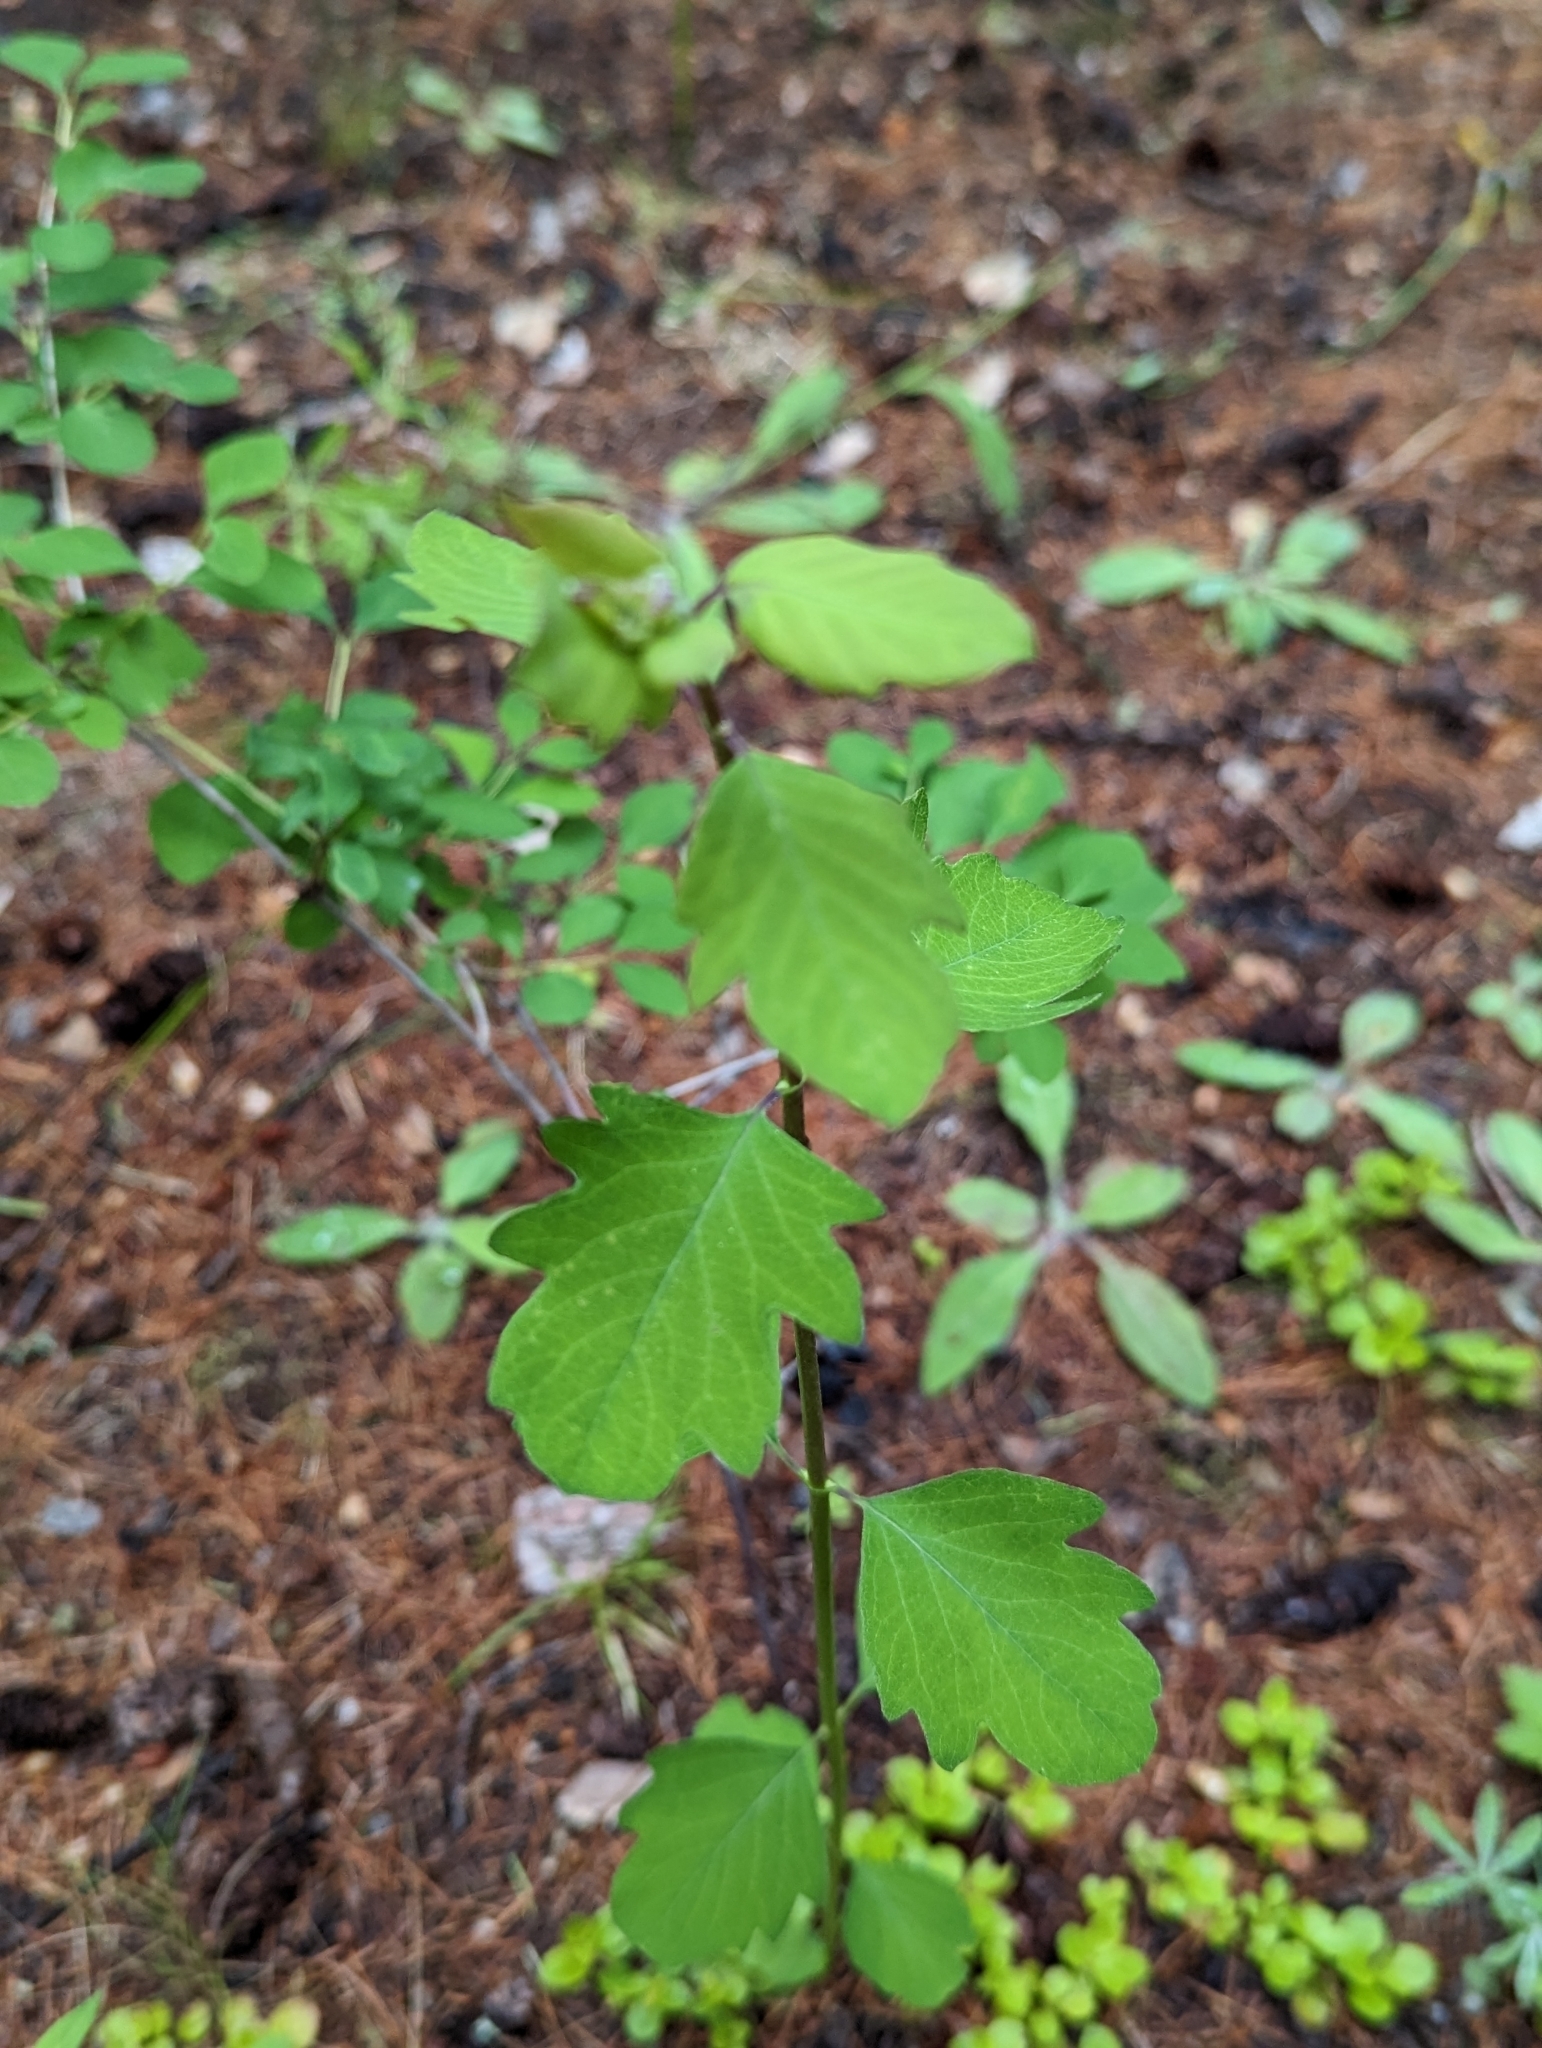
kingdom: Plantae
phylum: Tracheophyta
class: Magnoliopsida
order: Rosales
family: Rosaceae
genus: Holodiscus
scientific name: Holodiscus discolor
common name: Oceanspray
